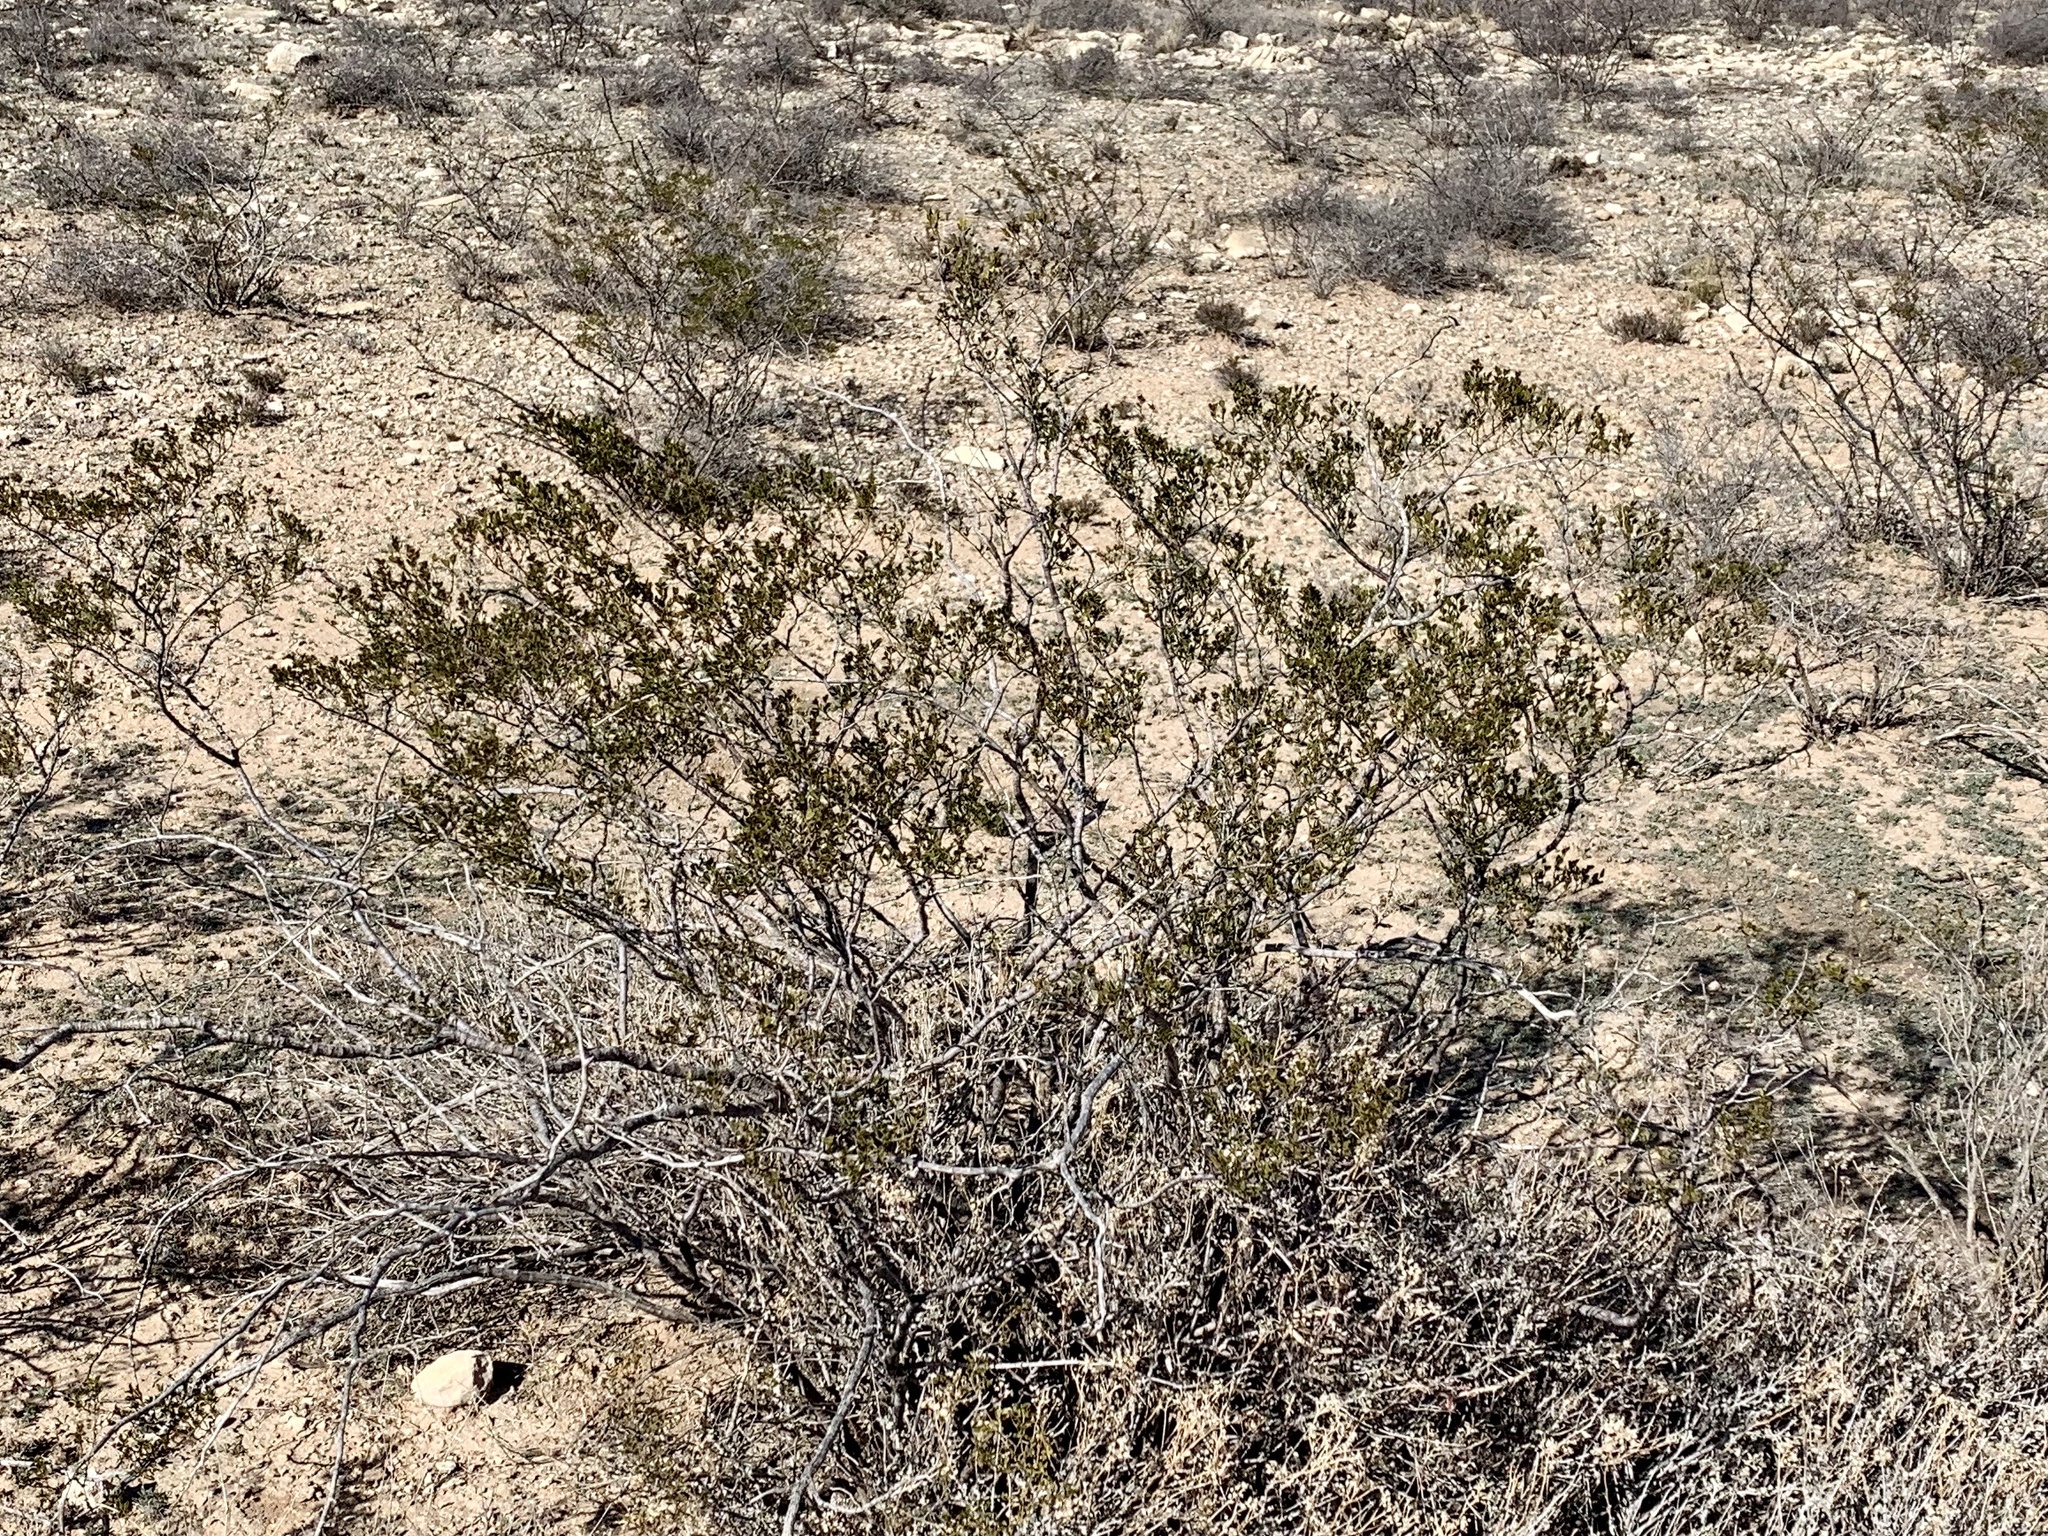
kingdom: Plantae
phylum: Tracheophyta
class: Magnoliopsida
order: Zygophyllales
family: Zygophyllaceae
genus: Larrea
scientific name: Larrea tridentata
